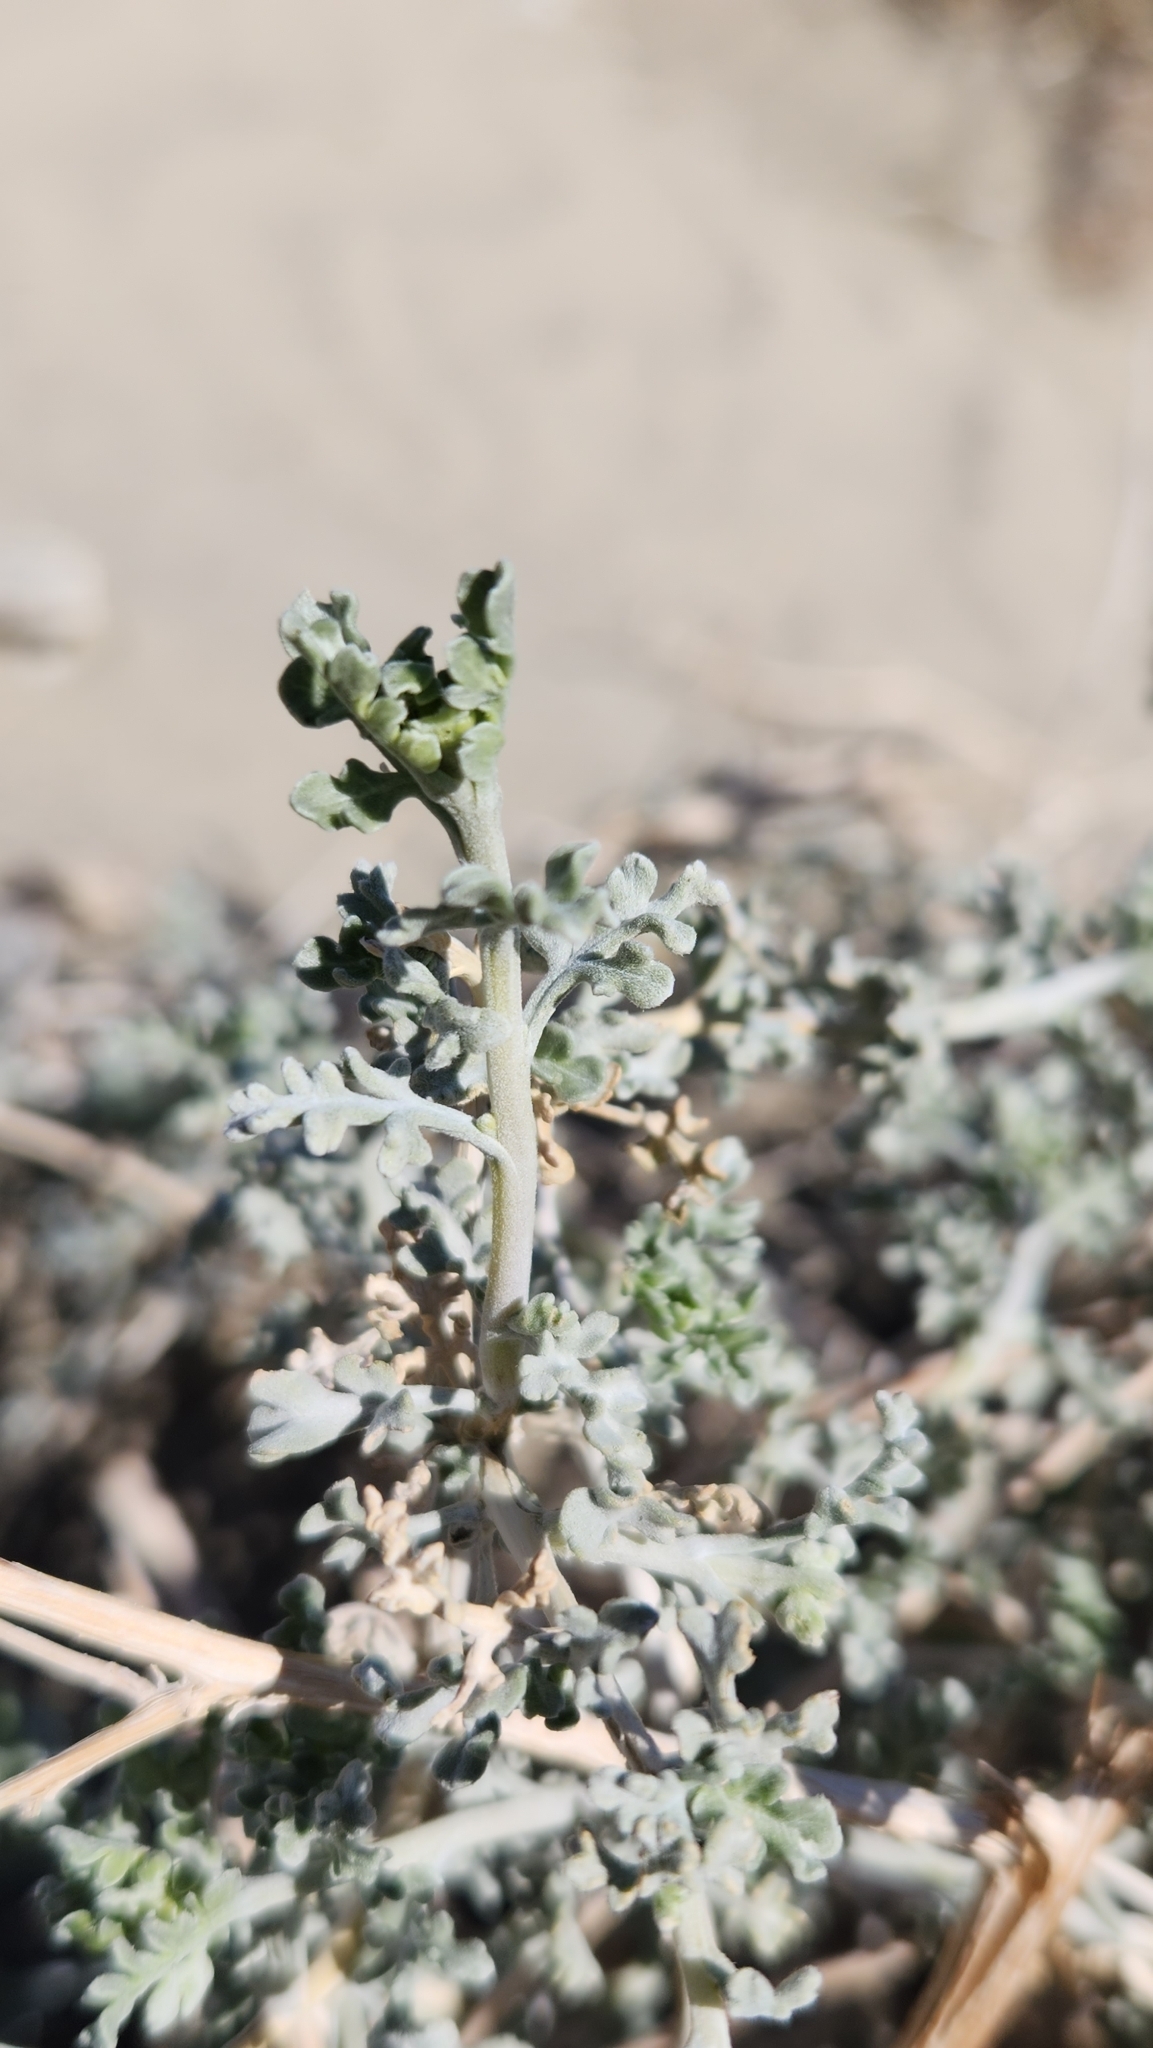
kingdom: Plantae
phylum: Tracheophyta
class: Magnoliopsida
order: Asterales
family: Asteraceae
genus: Ambrosia
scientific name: Ambrosia dumosa
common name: Bur-sage
